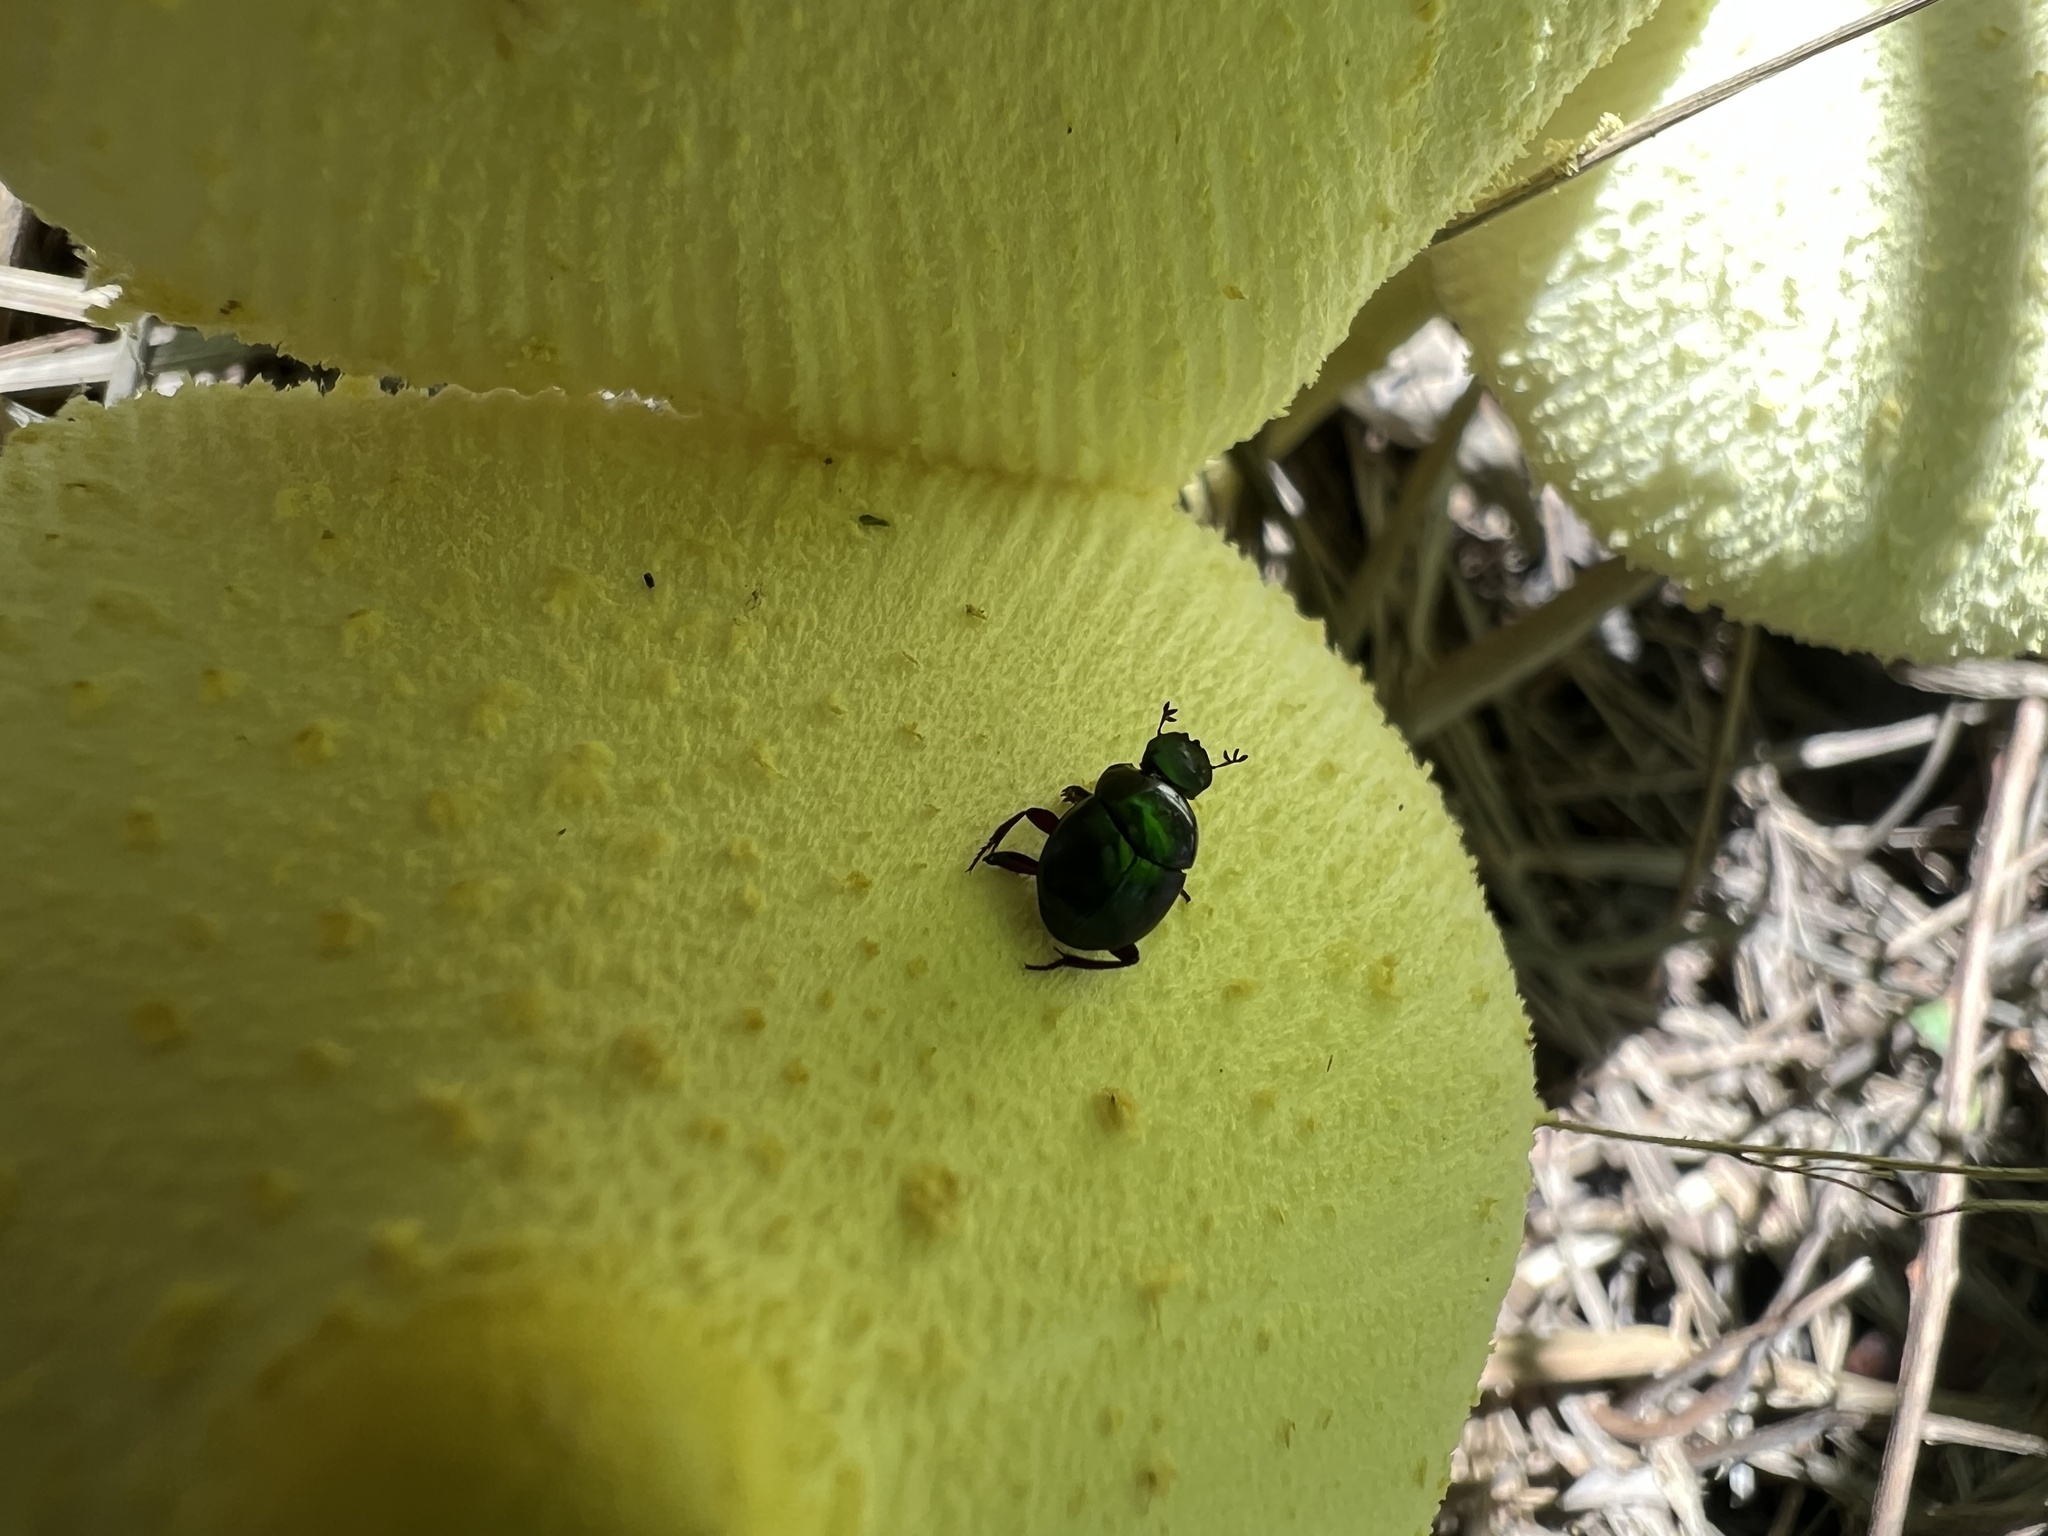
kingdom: Animalia
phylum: Arthropoda
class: Insecta
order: Coleoptera
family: Scarabaeidae
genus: Canthon
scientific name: Canthon viridis
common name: Tumblebug
